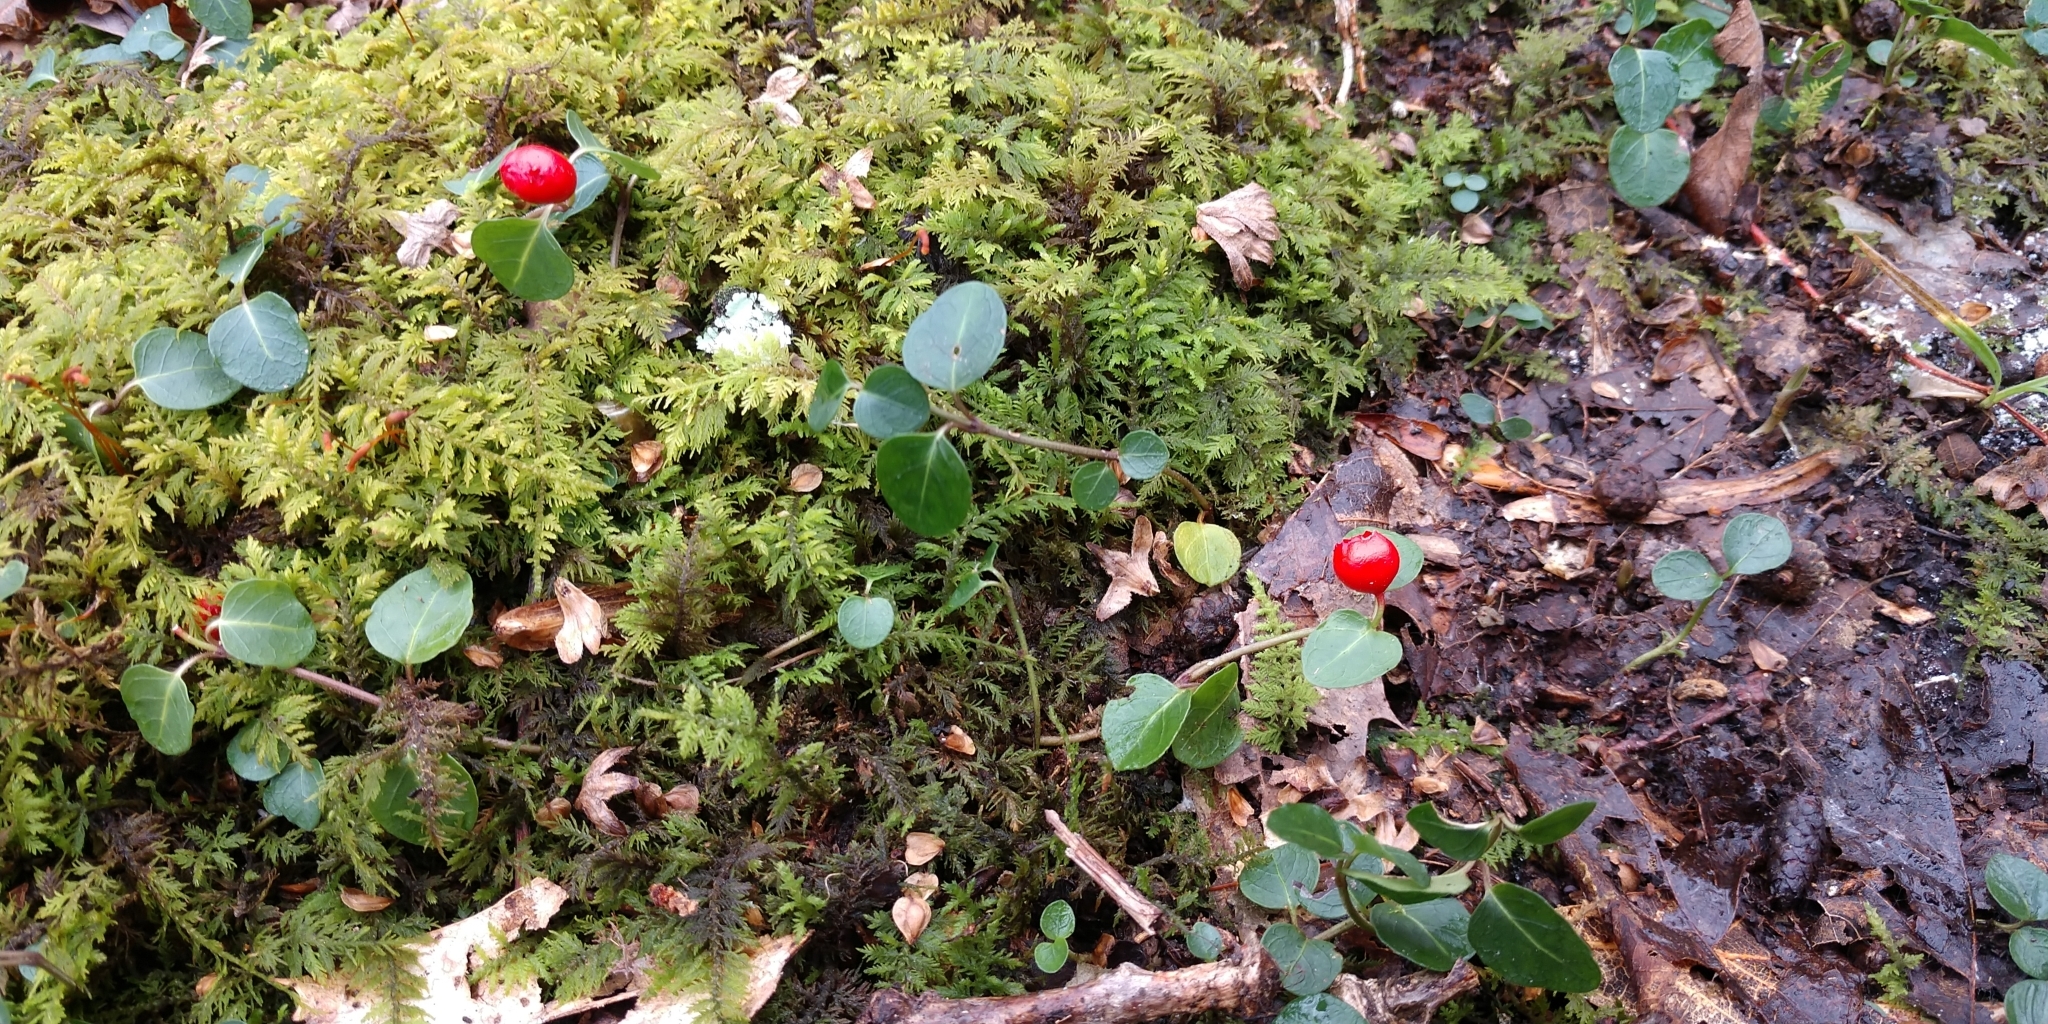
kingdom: Plantae
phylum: Tracheophyta
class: Magnoliopsida
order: Gentianales
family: Rubiaceae
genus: Mitchella
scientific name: Mitchella repens
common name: Partridge-berry
